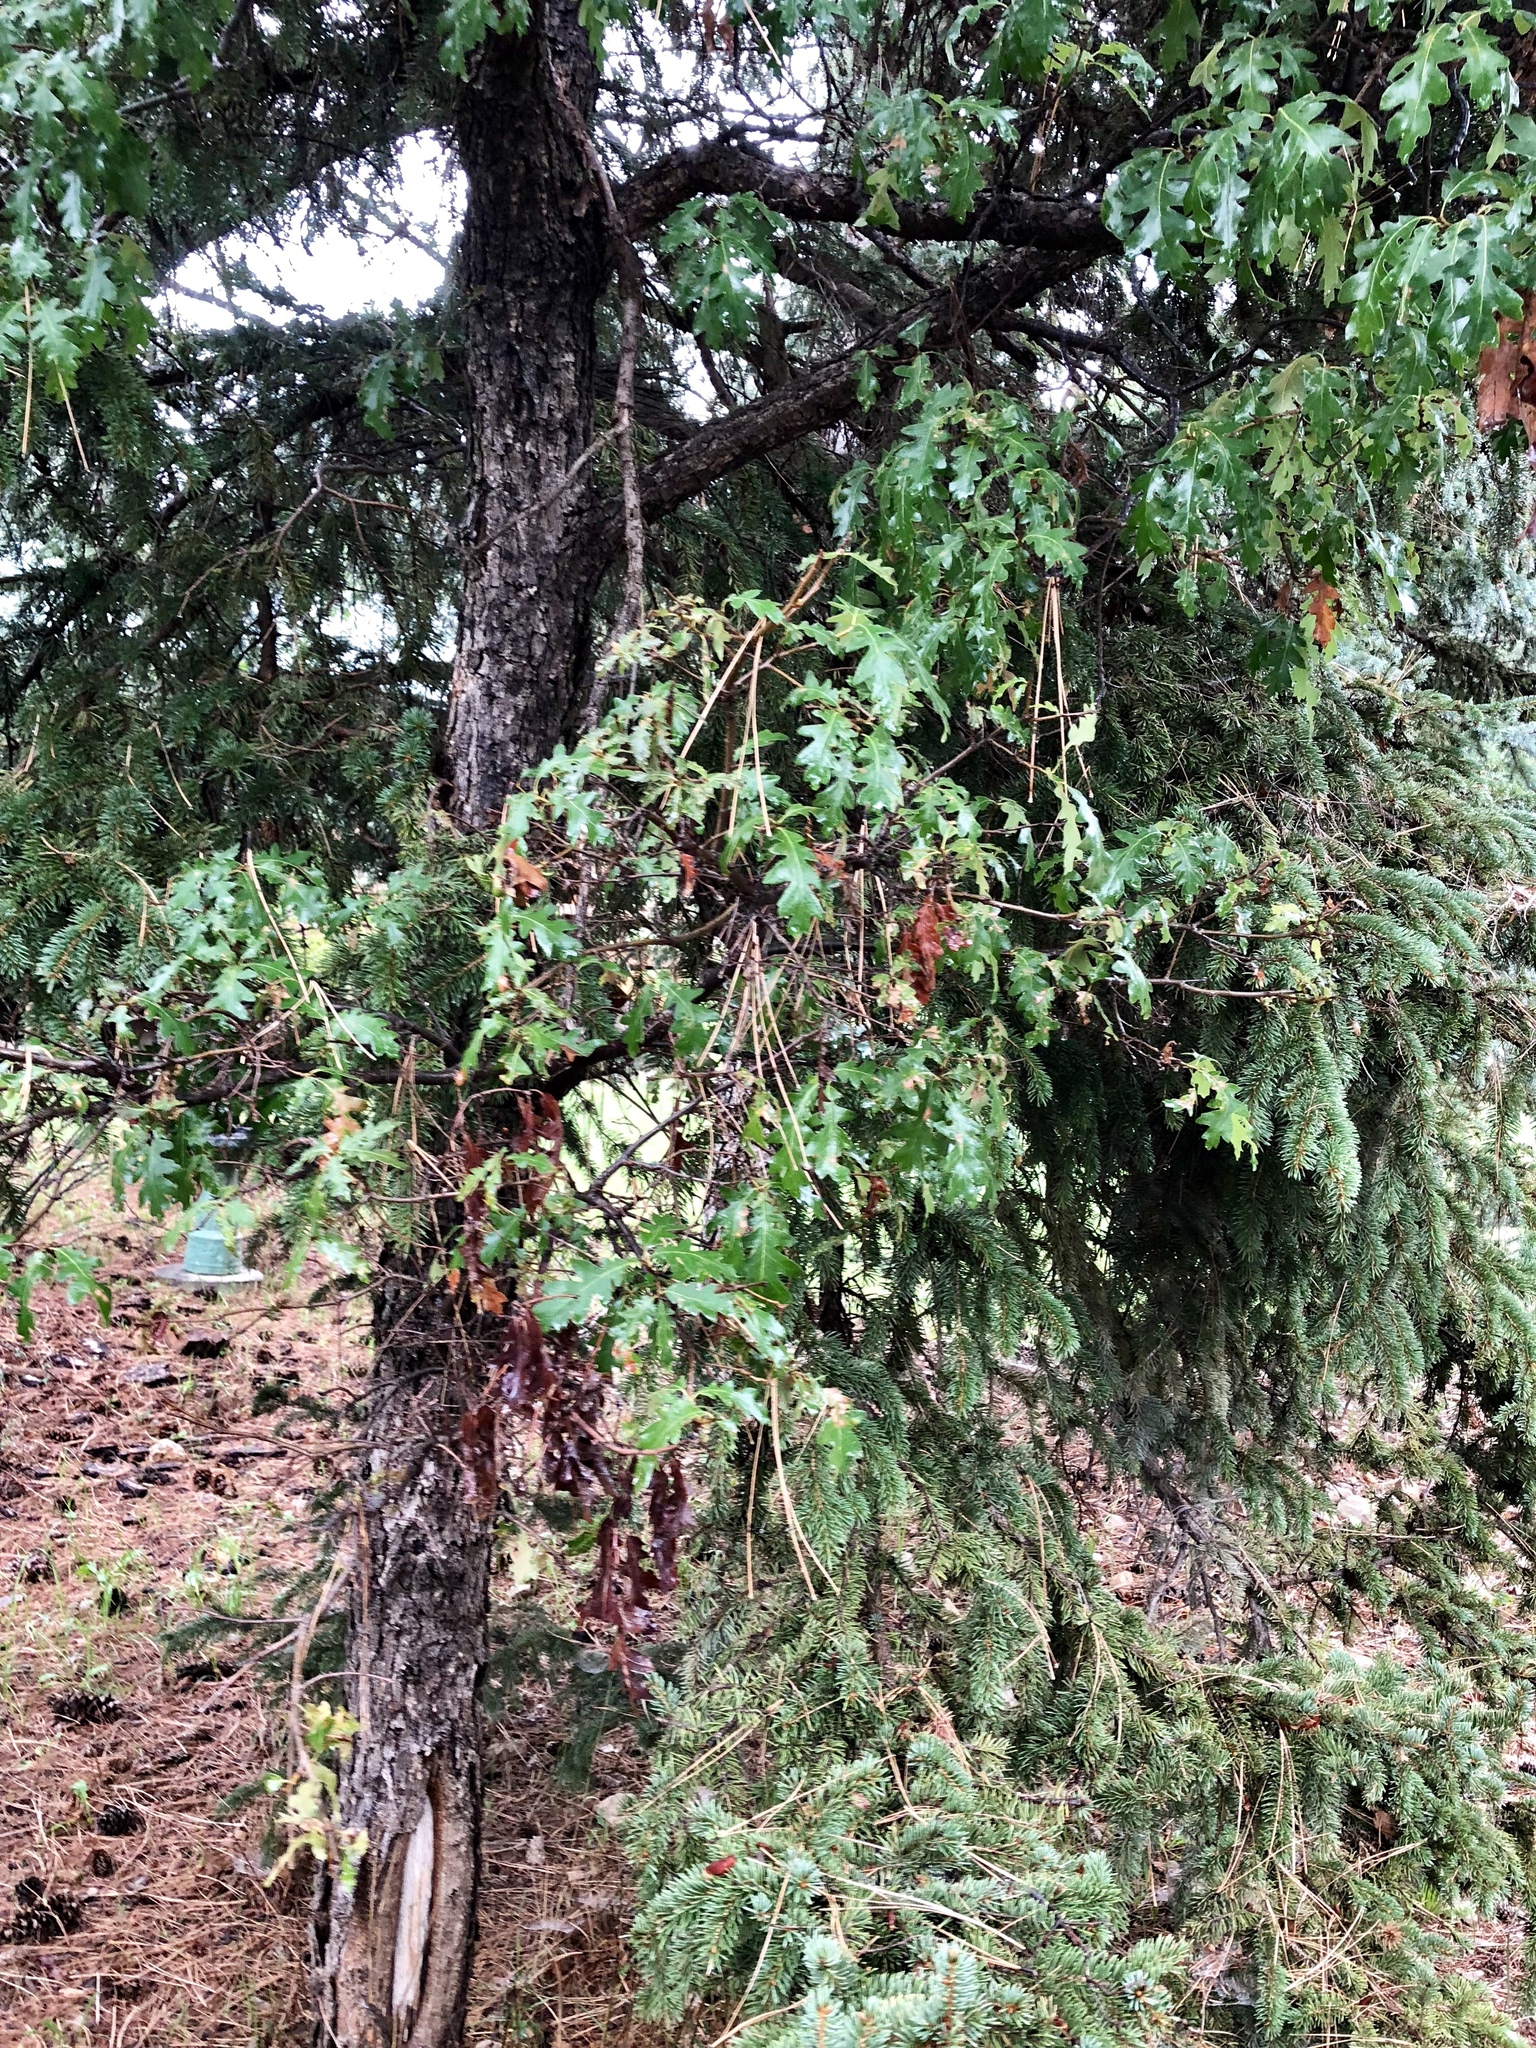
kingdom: Plantae
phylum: Tracheophyta
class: Magnoliopsida
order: Fagales
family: Fagaceae
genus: Quercus
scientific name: Quercus gambelii
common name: Gambel oak
